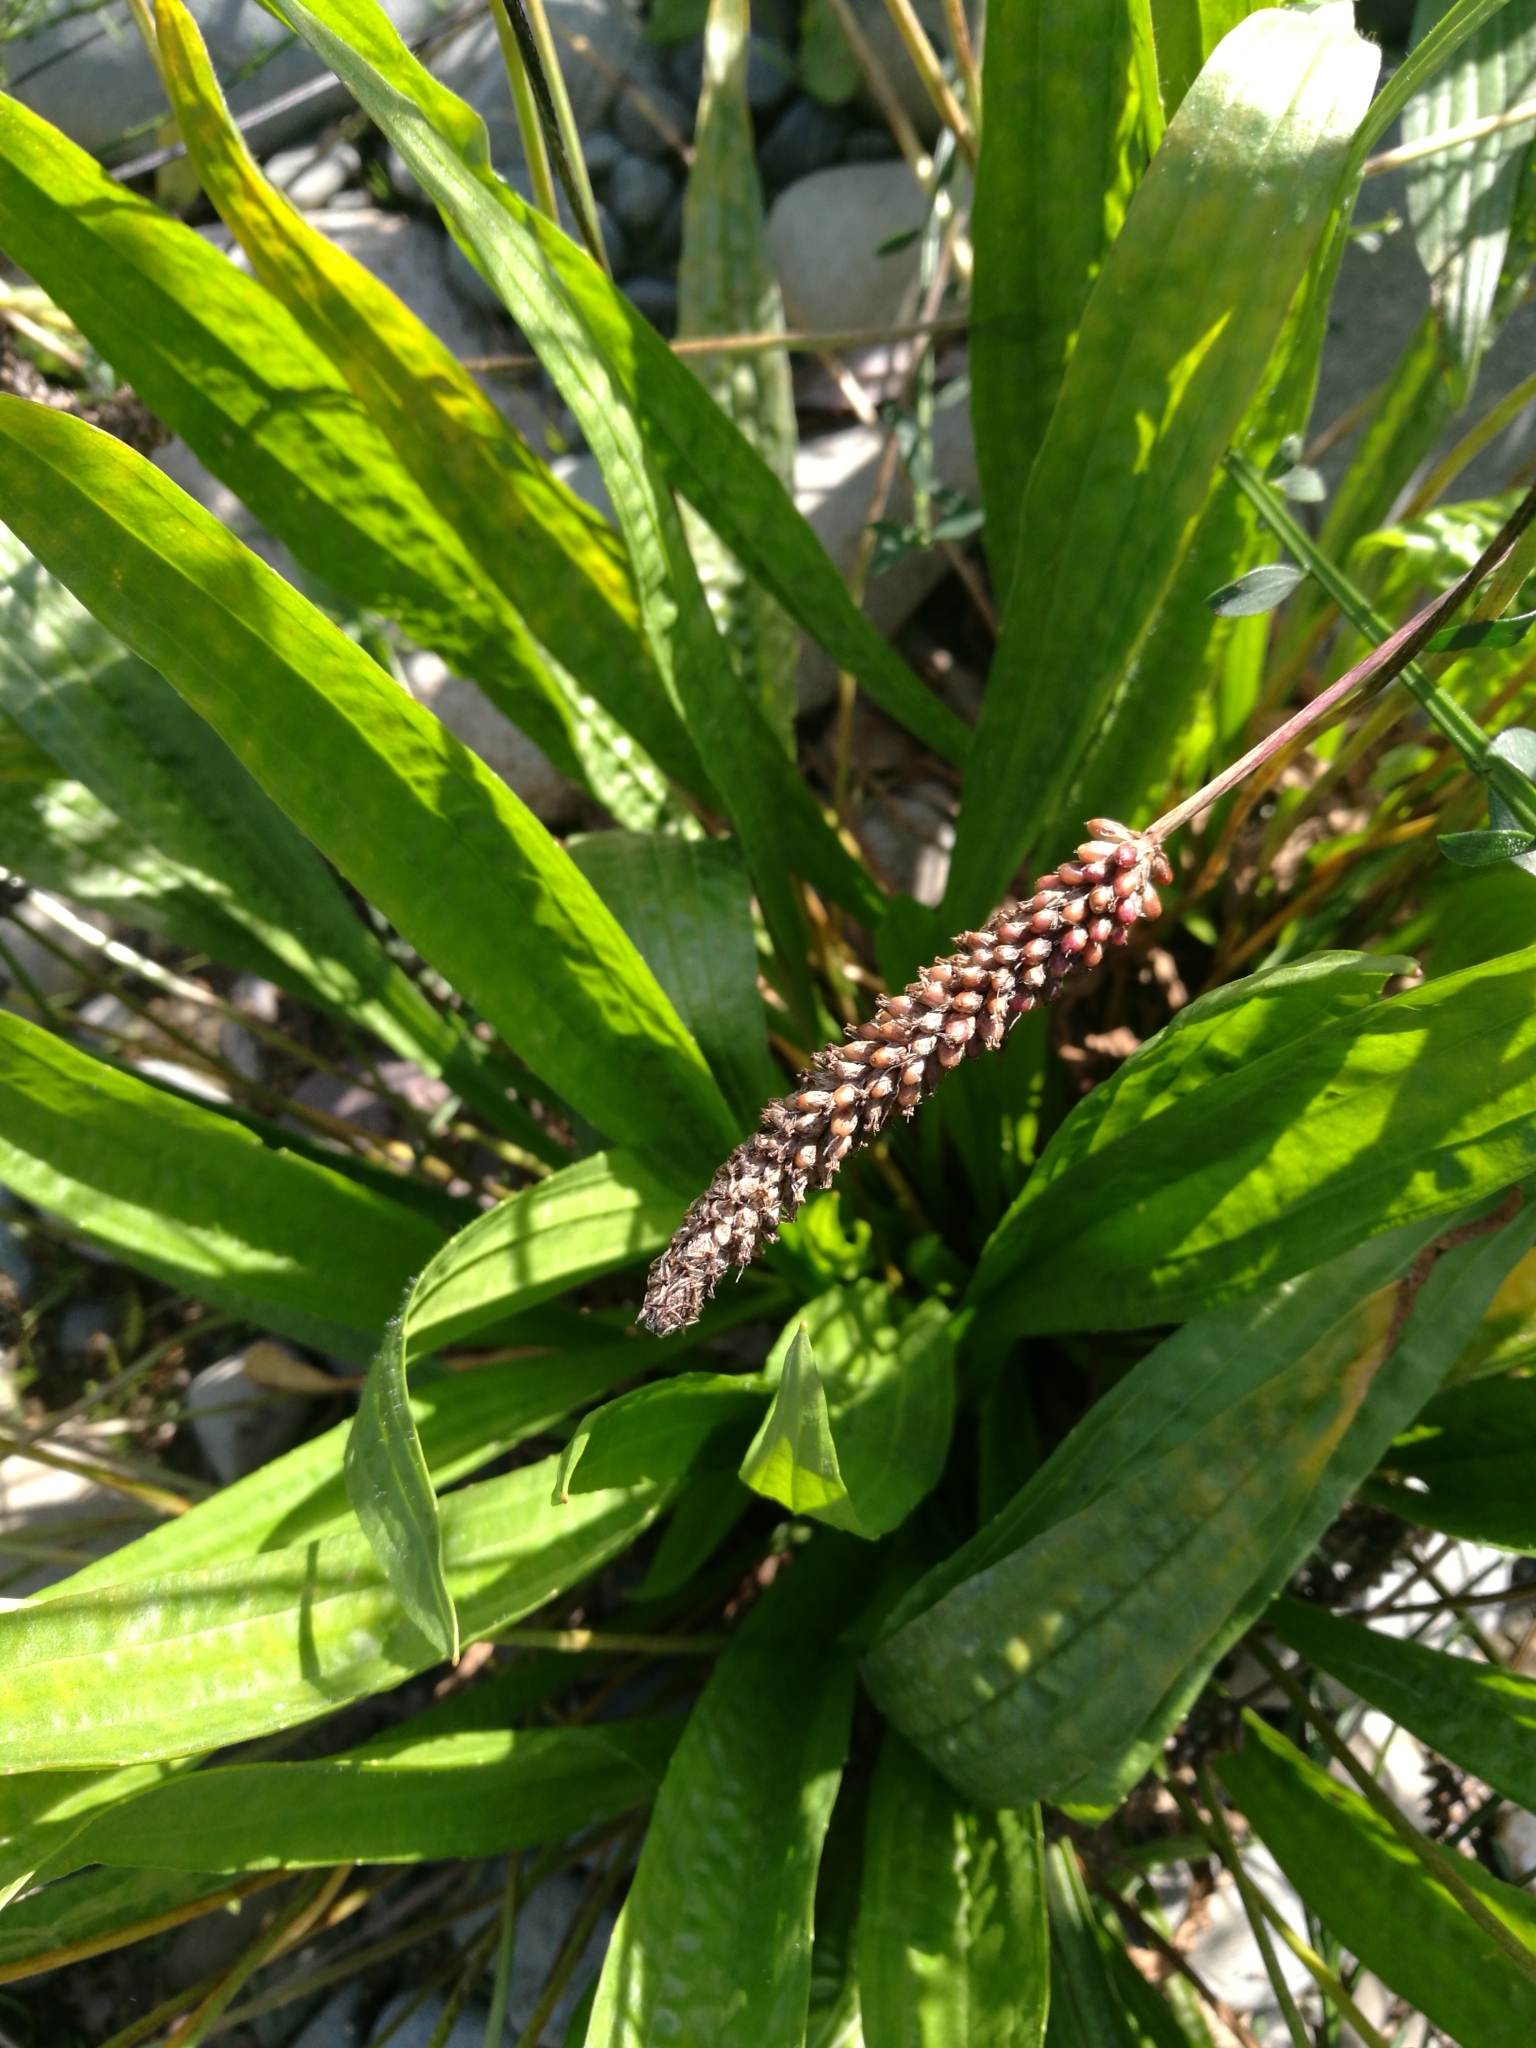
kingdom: Plantae
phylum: Tracheophyta
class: Magnoliopsida
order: Lamiales
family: Plantaginaceae
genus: Plantago
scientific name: Plantago lanceolata
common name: Ribwort plantain
